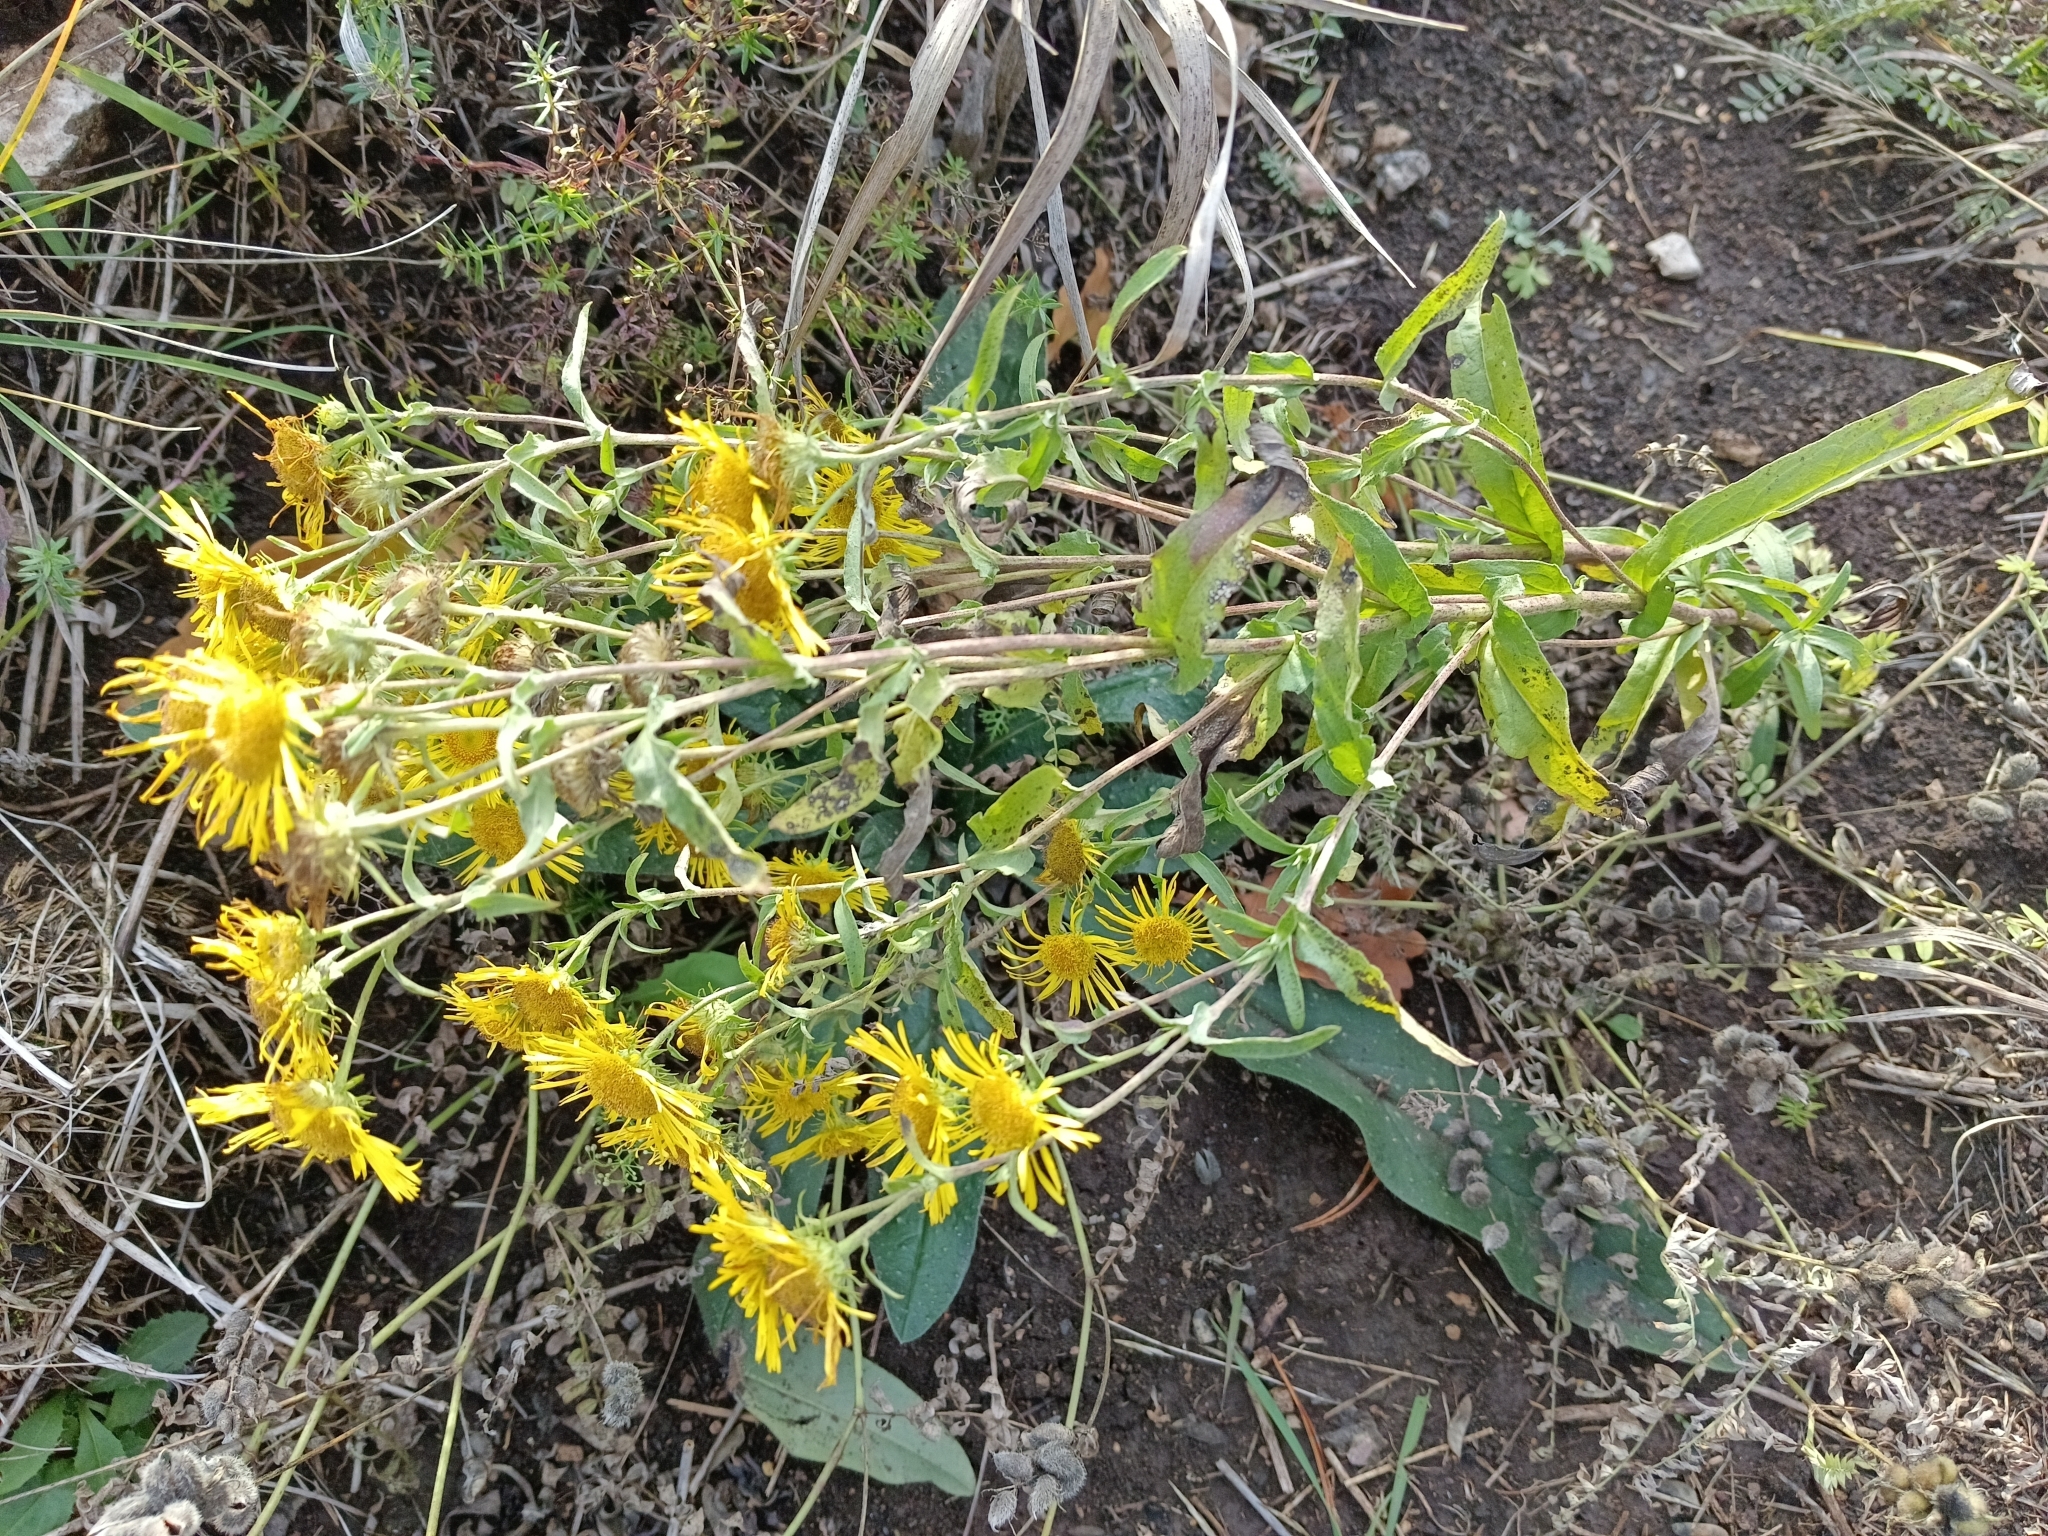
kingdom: Plantae
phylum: Tracheophyta
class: Magnoliopsida
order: Asterales
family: Asteraceae
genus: Pentanema
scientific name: Pentanema britannicum
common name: British elecampane
